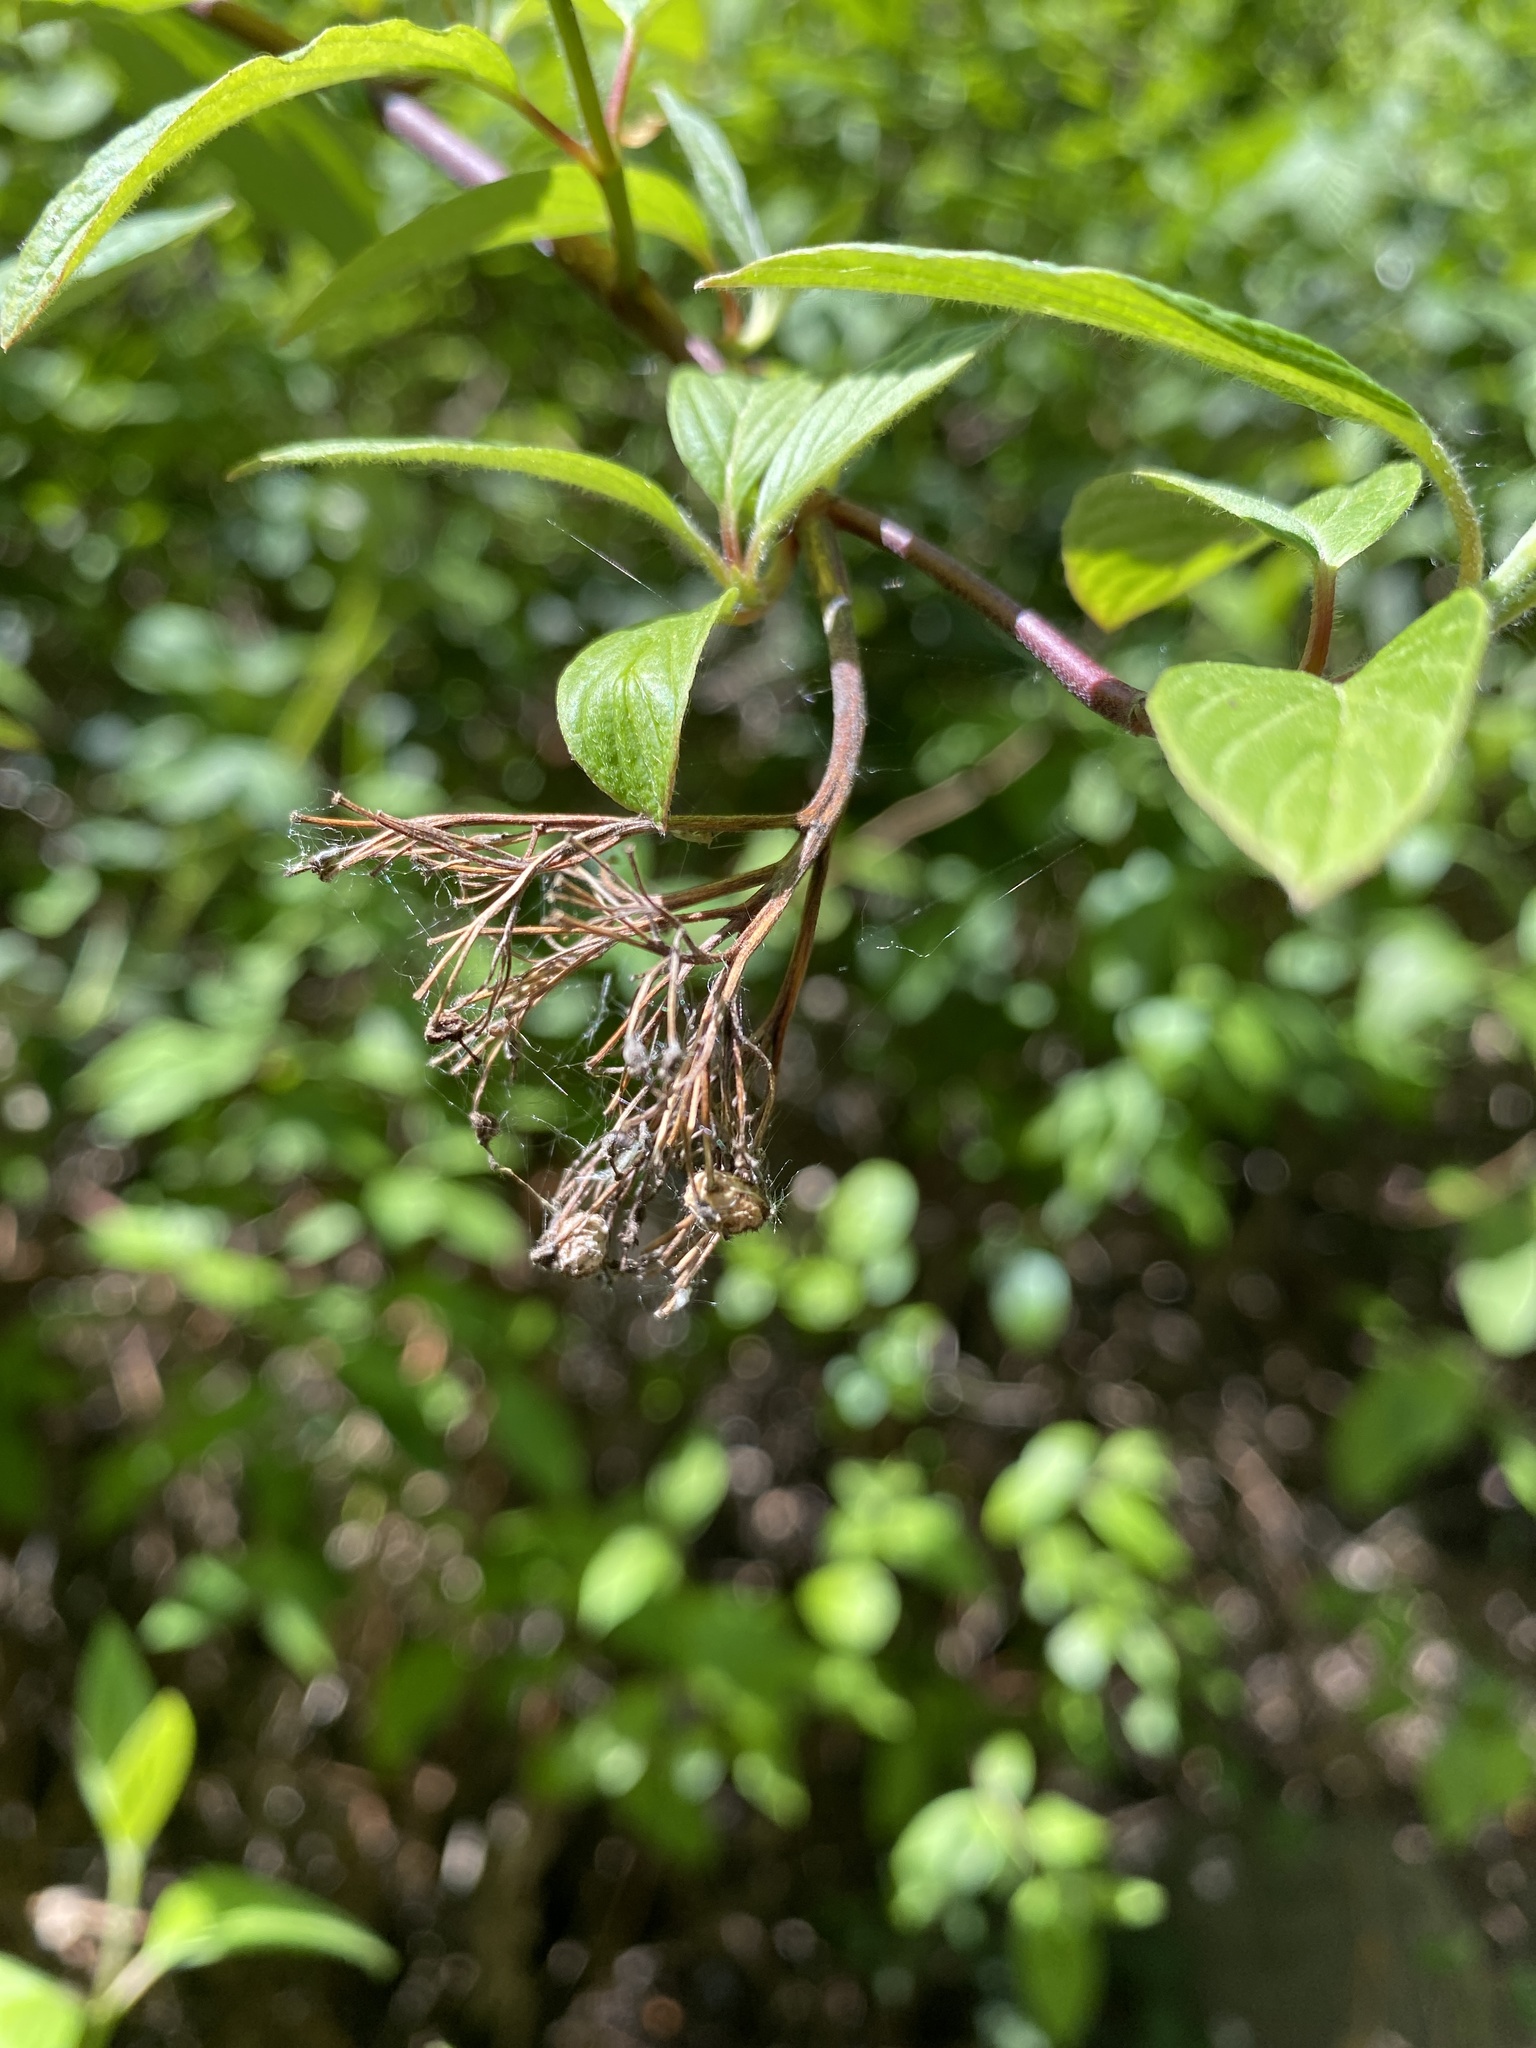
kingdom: Plantae
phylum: Tracheophyta
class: Magnoliopsida
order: Cornales
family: Cornaceae
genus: Cornus
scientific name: Cornus sericea
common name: Red-osier dogwood
